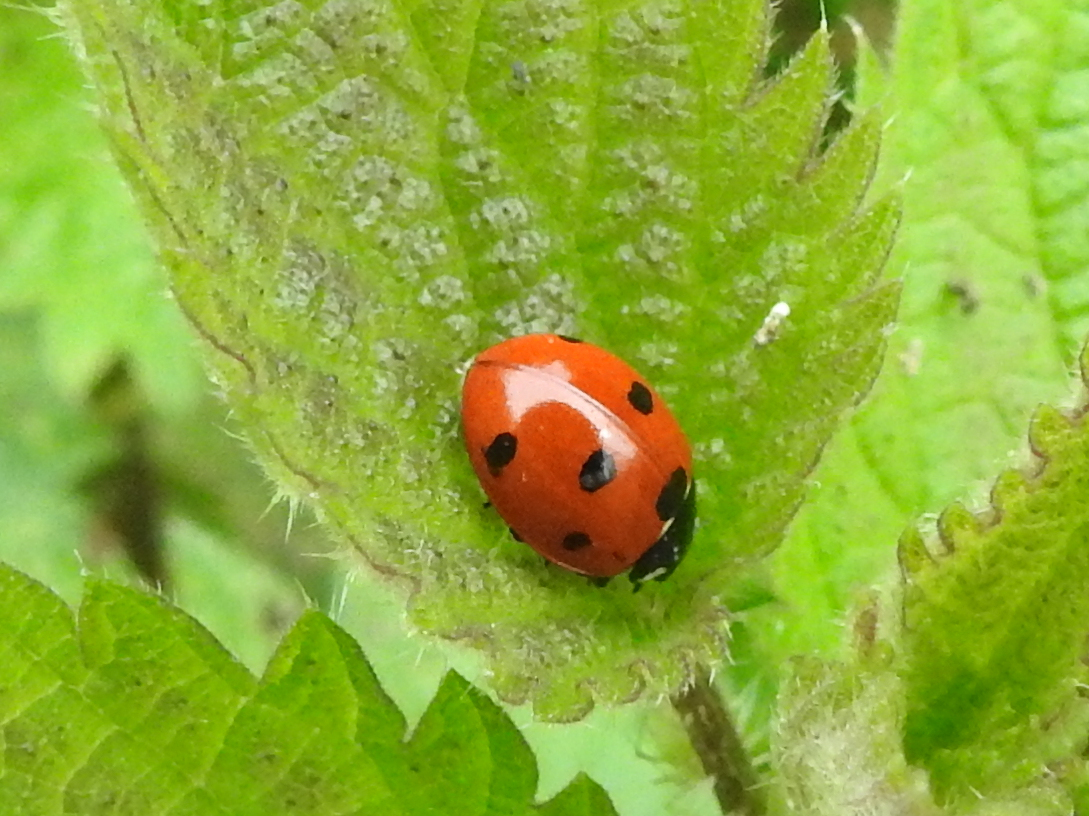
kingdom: Animalia
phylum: Arthropoda
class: Insecta
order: Coleoptera
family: Coccinellidae
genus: Coccinella
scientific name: Coccinella septempunctata
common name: Sevenspotted lady beetle
